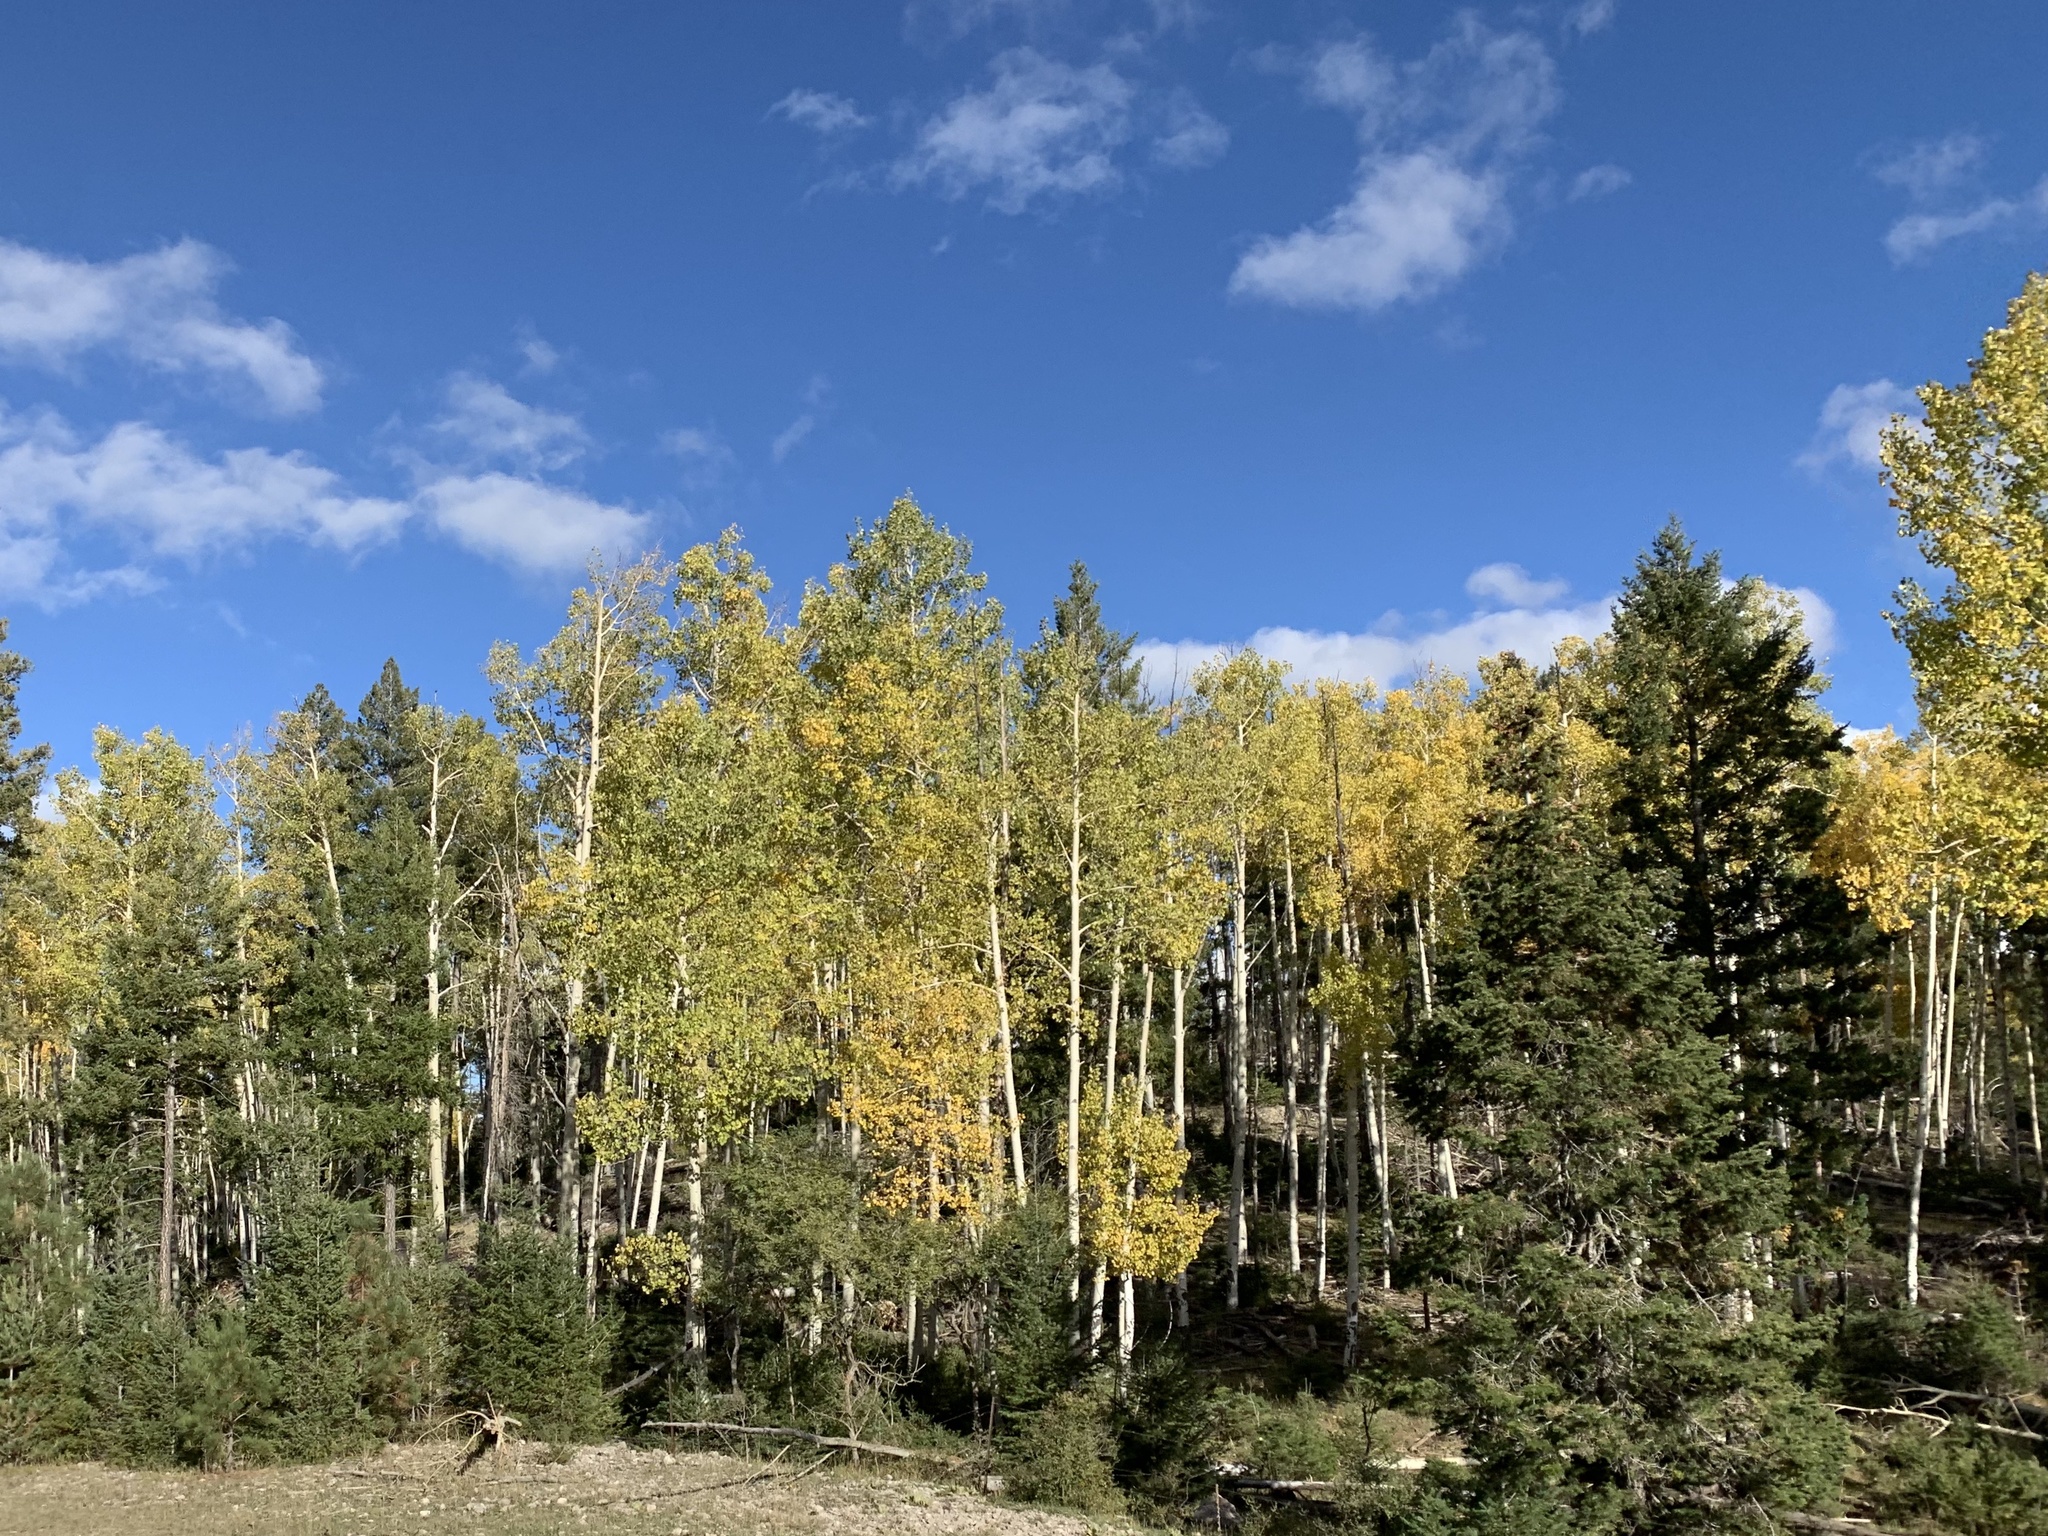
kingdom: Plantae
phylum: Tracheophyta
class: Magnoliopsida
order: Malpighiales
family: Salicaceae
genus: Populus
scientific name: Populus tremuloides
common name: Quaking aspen
